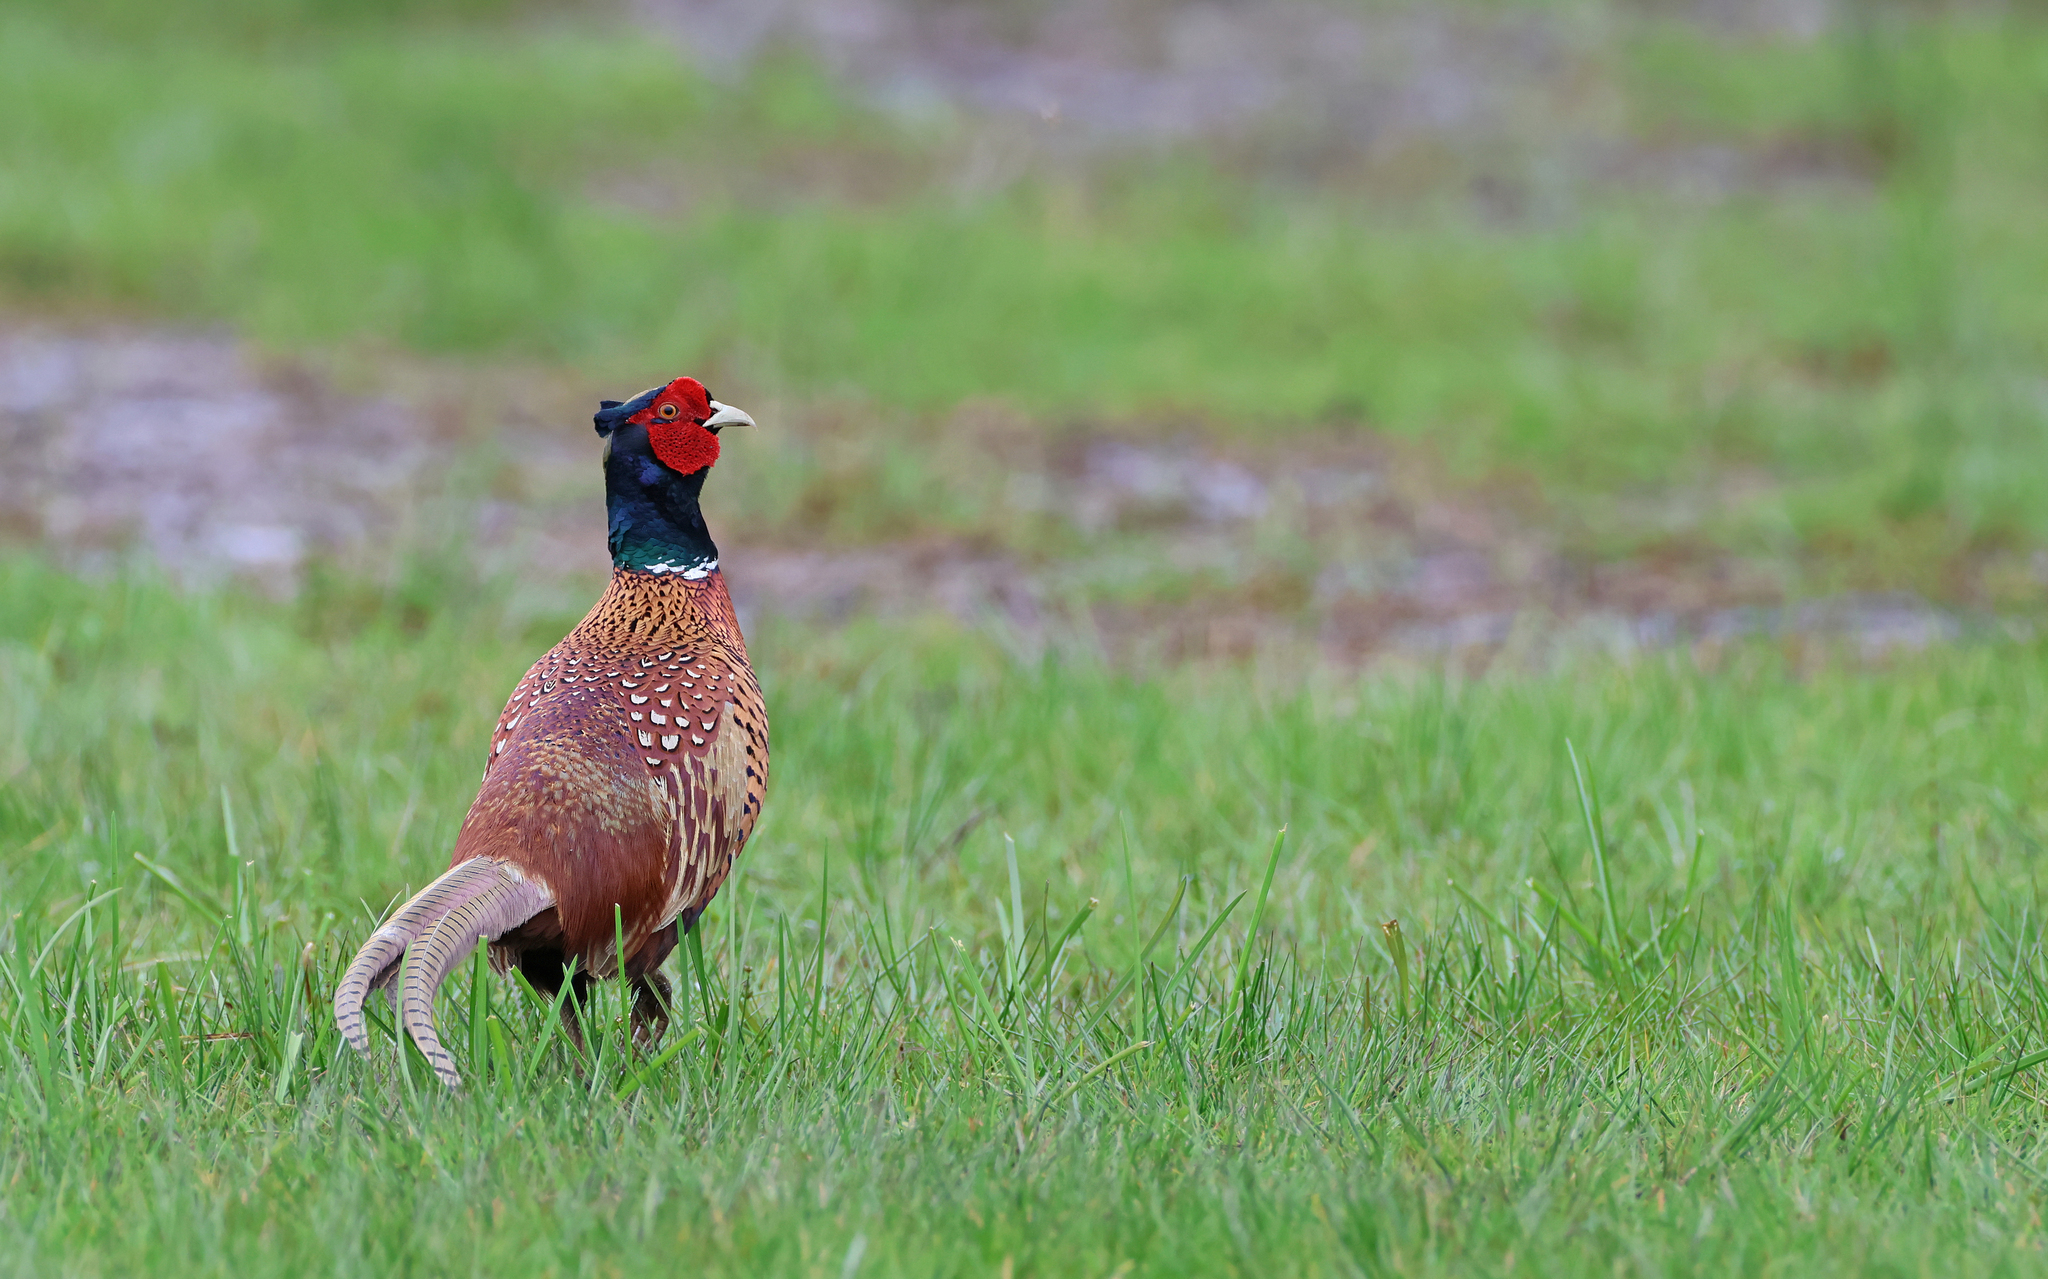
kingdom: Animalia
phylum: Chordata
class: Aves
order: Galliformes
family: Phasianidae
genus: Phasianus
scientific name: Phasianus colchicus
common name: Common pheasant
